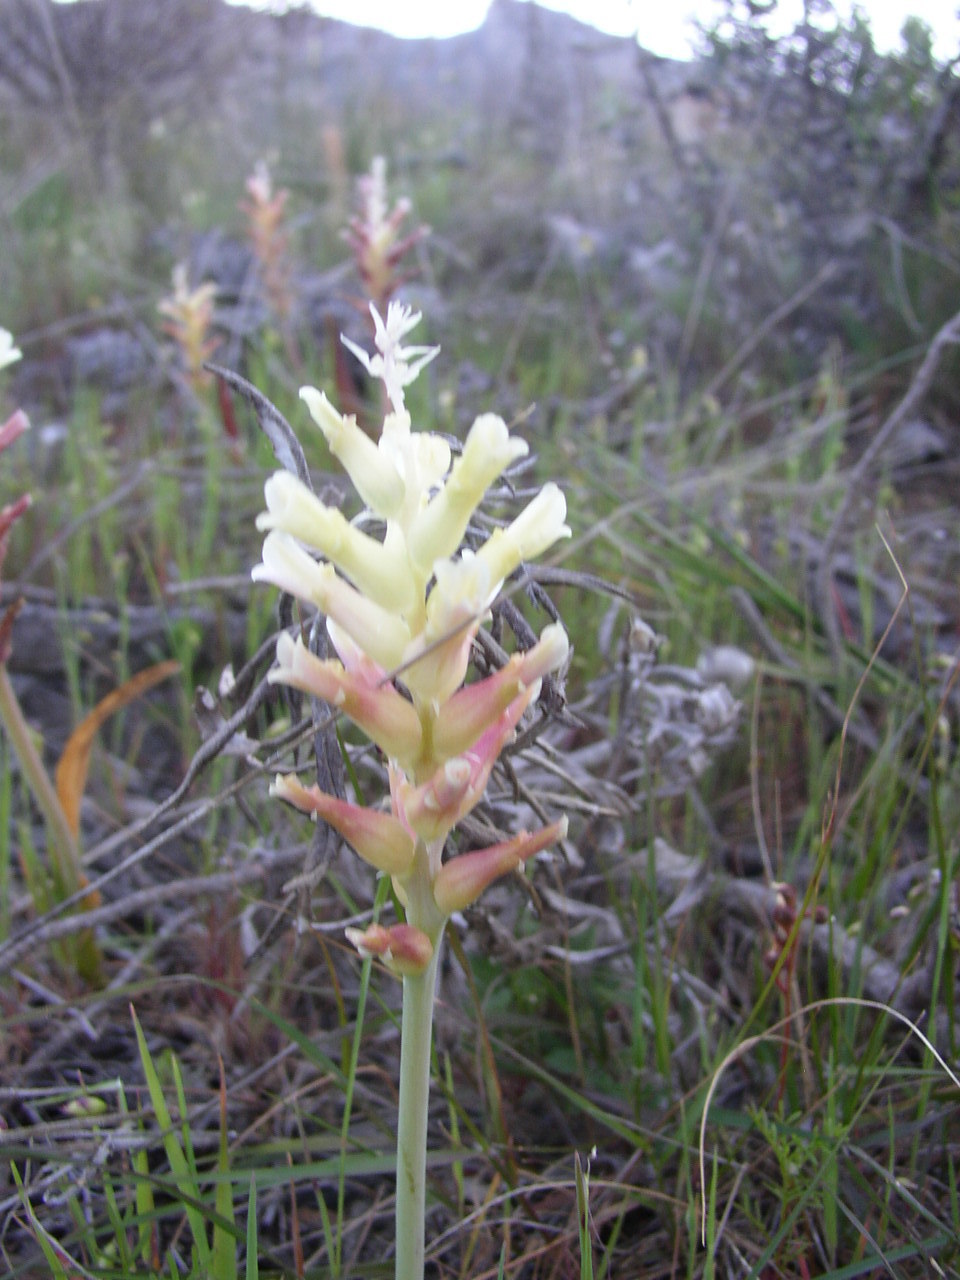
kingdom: Plantae
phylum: Tracheophyta
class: Liliopsida
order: Asparagales
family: Asparagaceae
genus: Lachenalia
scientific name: Lachenalia orchioides
